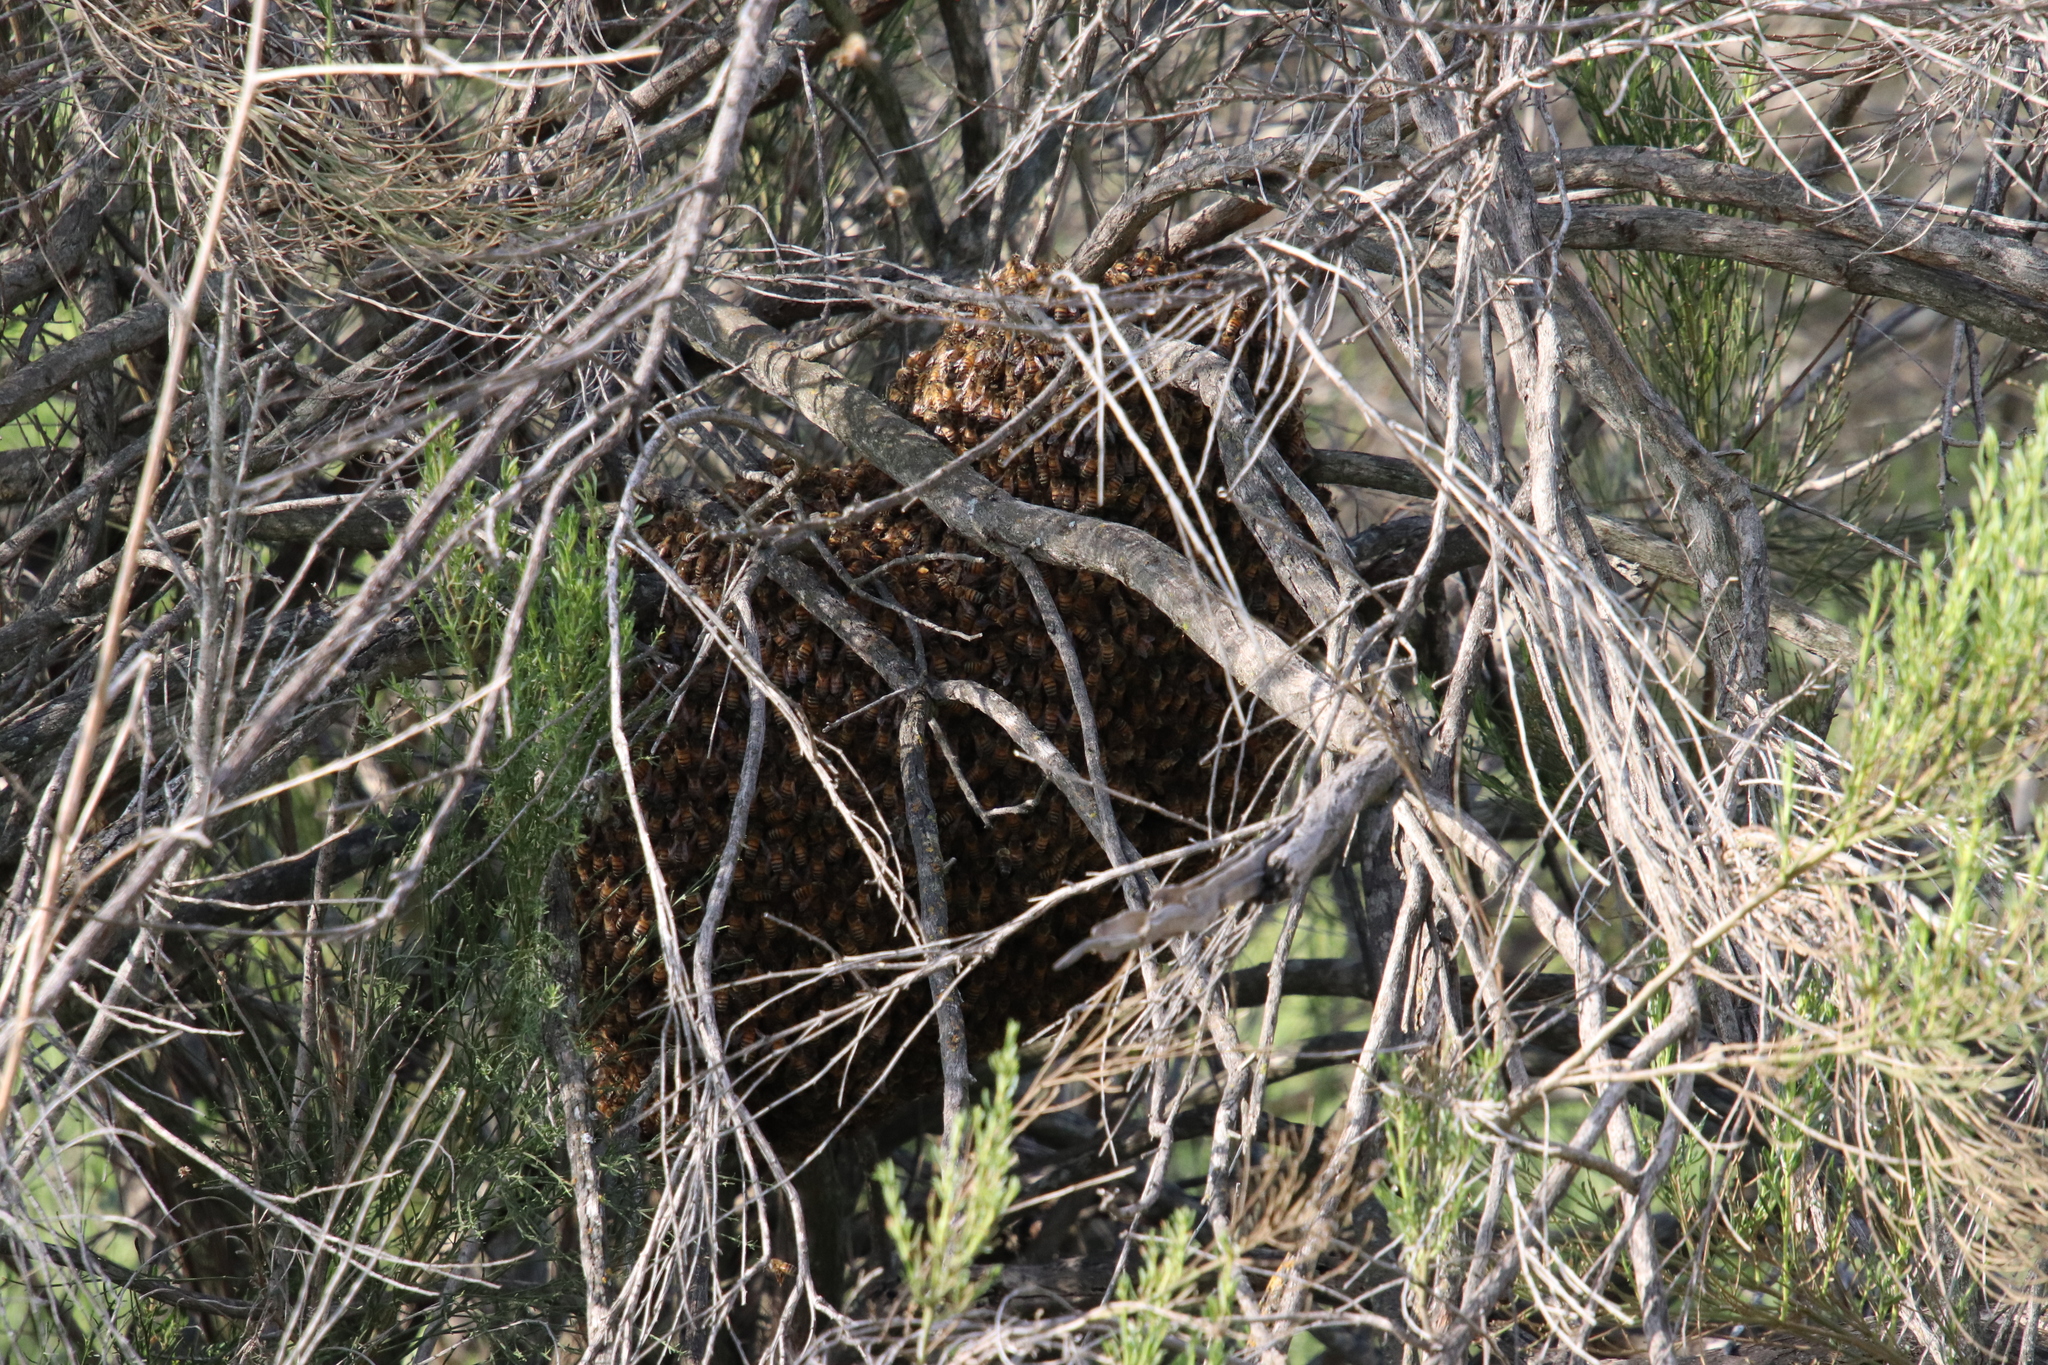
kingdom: Animalia
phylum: Arthropoda
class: Insecta
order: Hymenoptera
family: Apidae
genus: Apis
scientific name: Apis mellifera
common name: Honey bee
